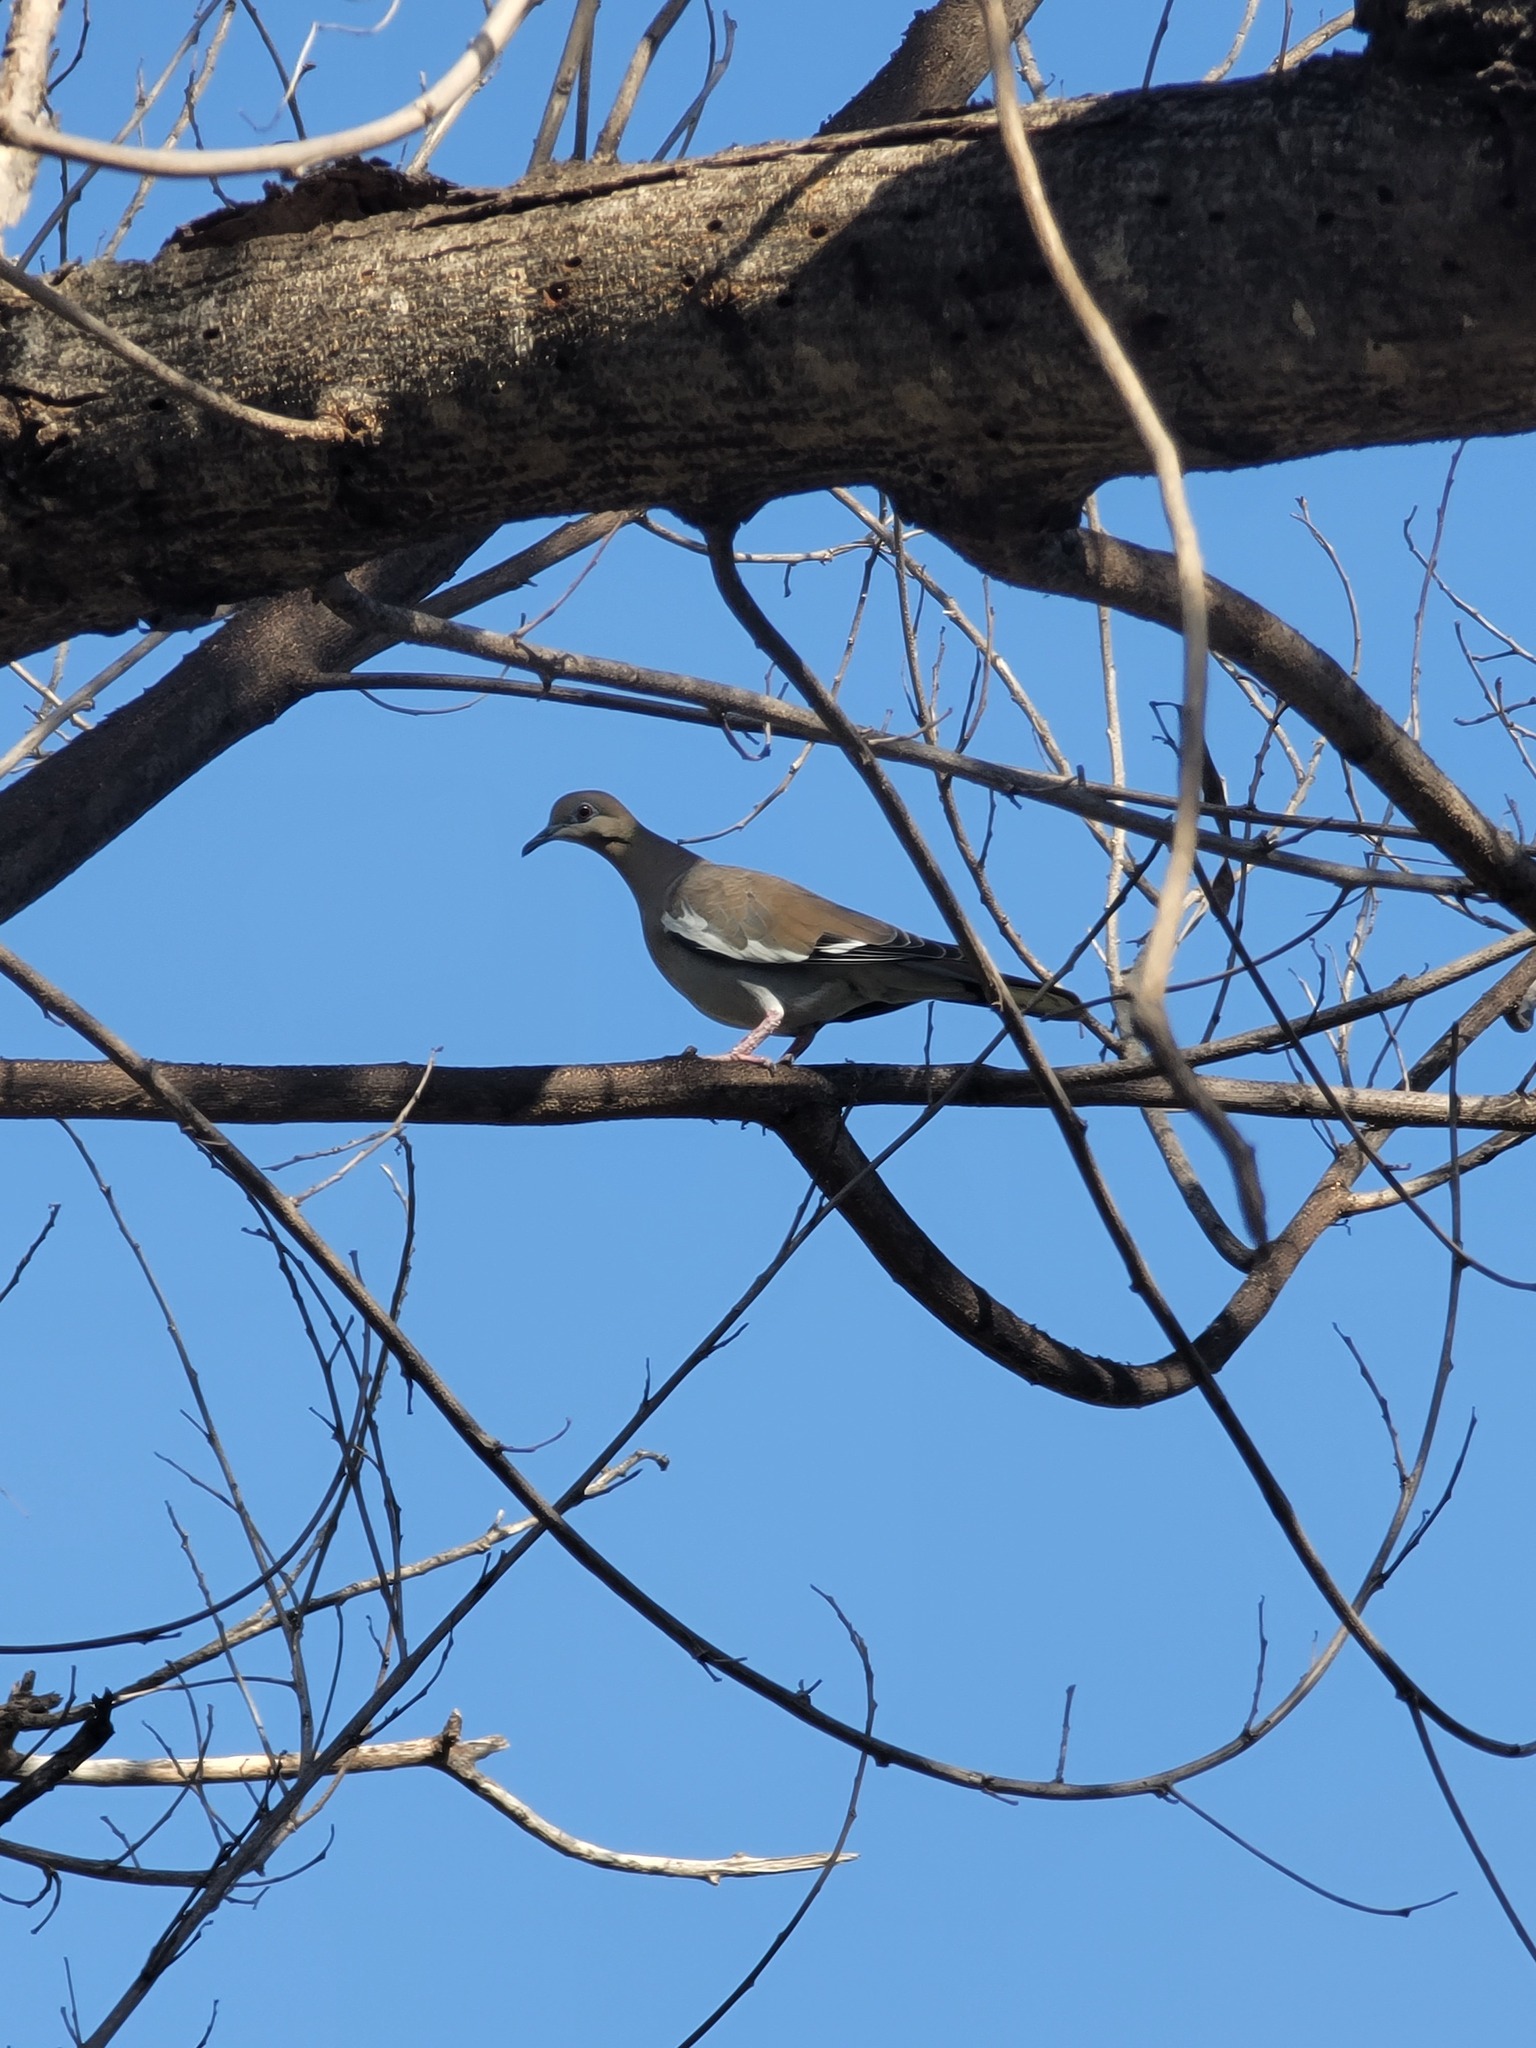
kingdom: Animalia
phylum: Chordata
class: Aves
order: Columbiformes
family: Columbidae
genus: Zenaida
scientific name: Zenaida asiatica
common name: White-winged dove
